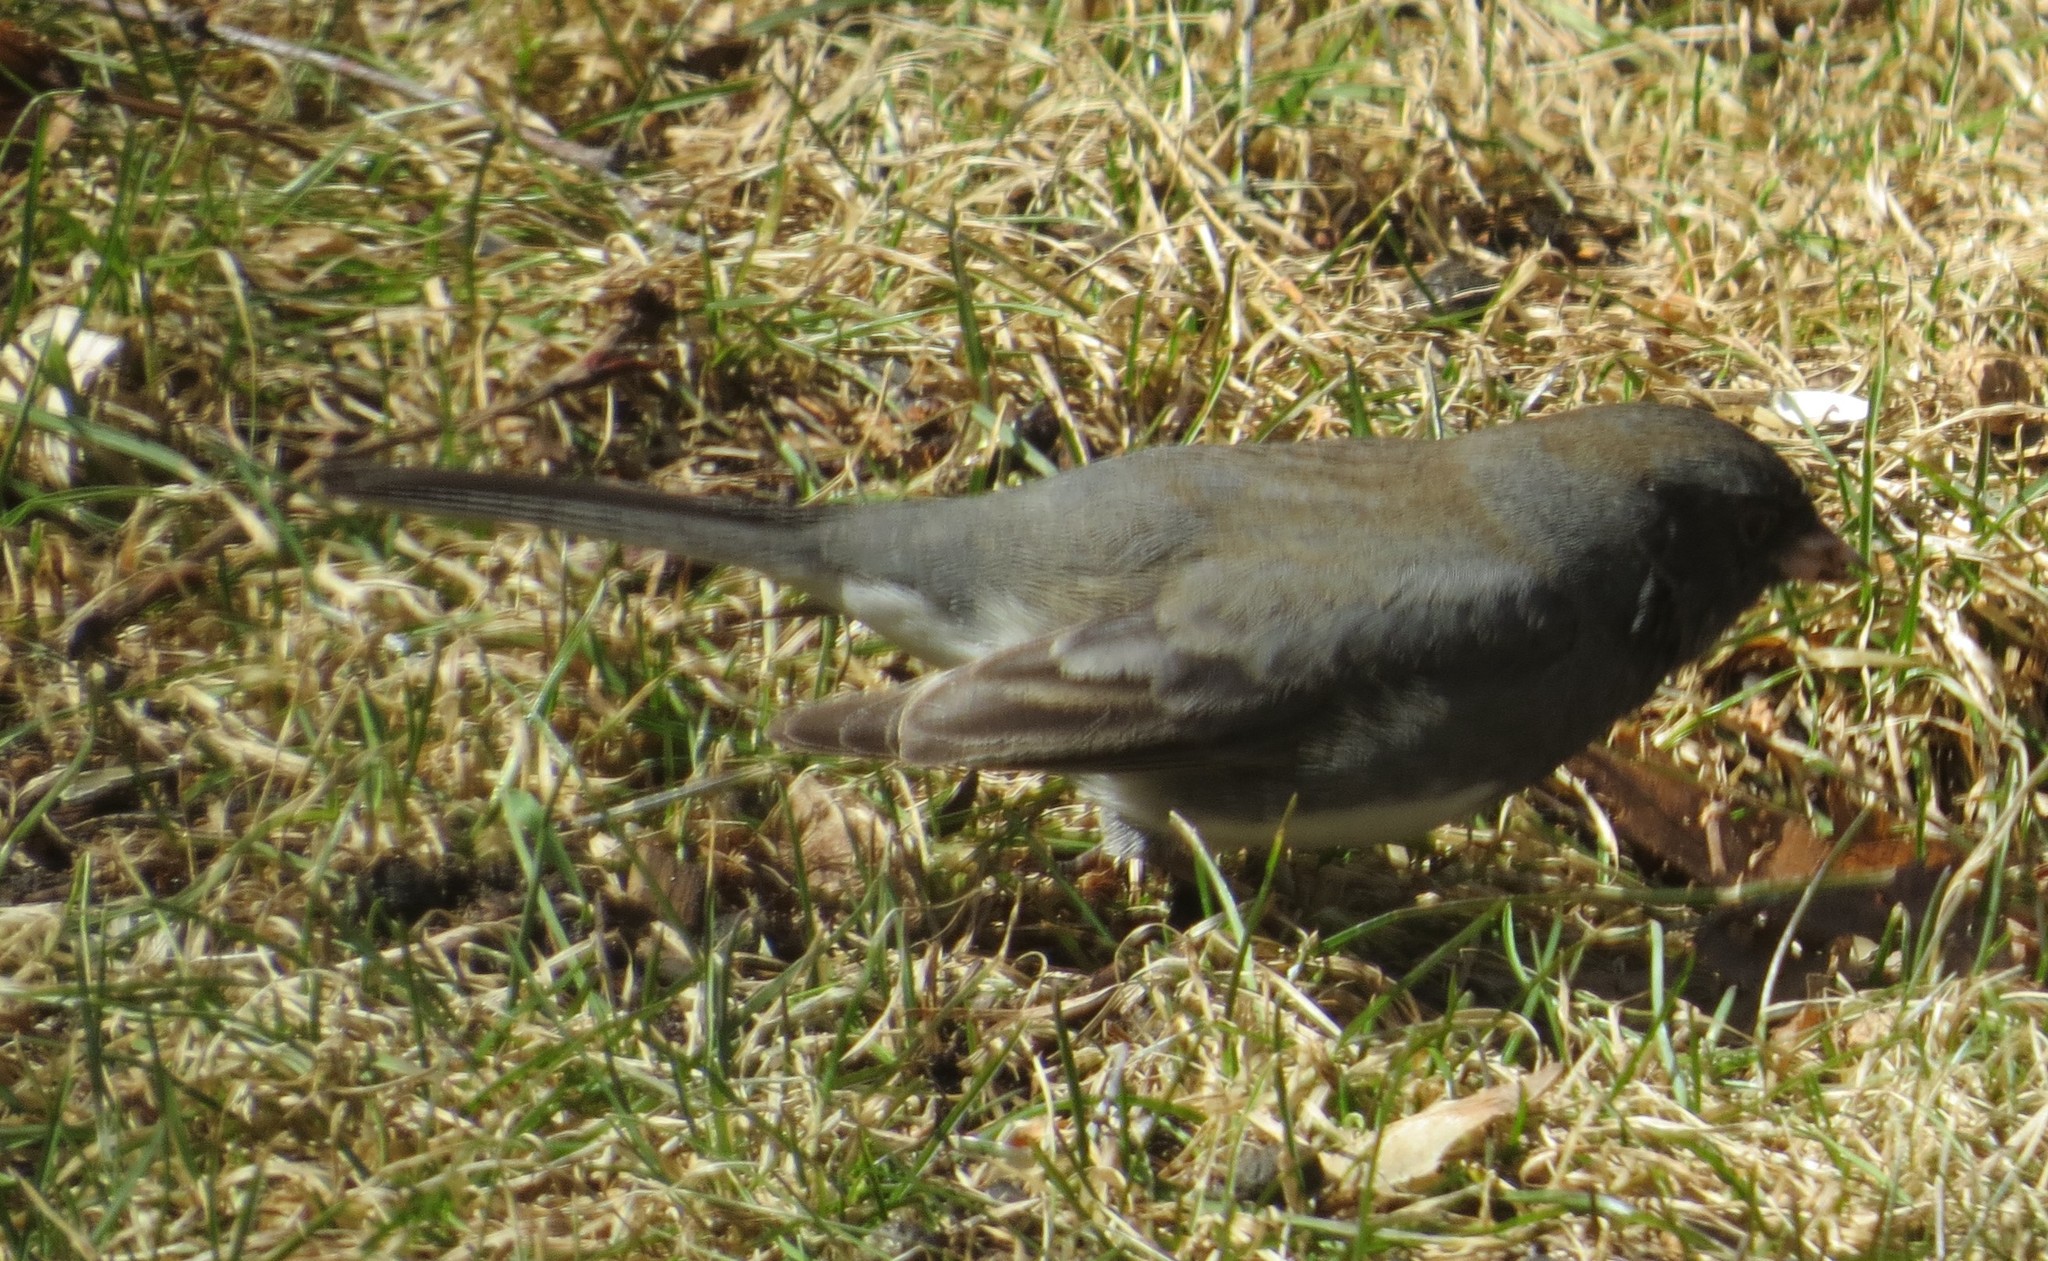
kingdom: Animalia
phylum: Chordata
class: Aves
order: Passeriformes
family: Passerellidae
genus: Junco
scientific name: Junco hyemalis
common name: Dark-eyed junco
